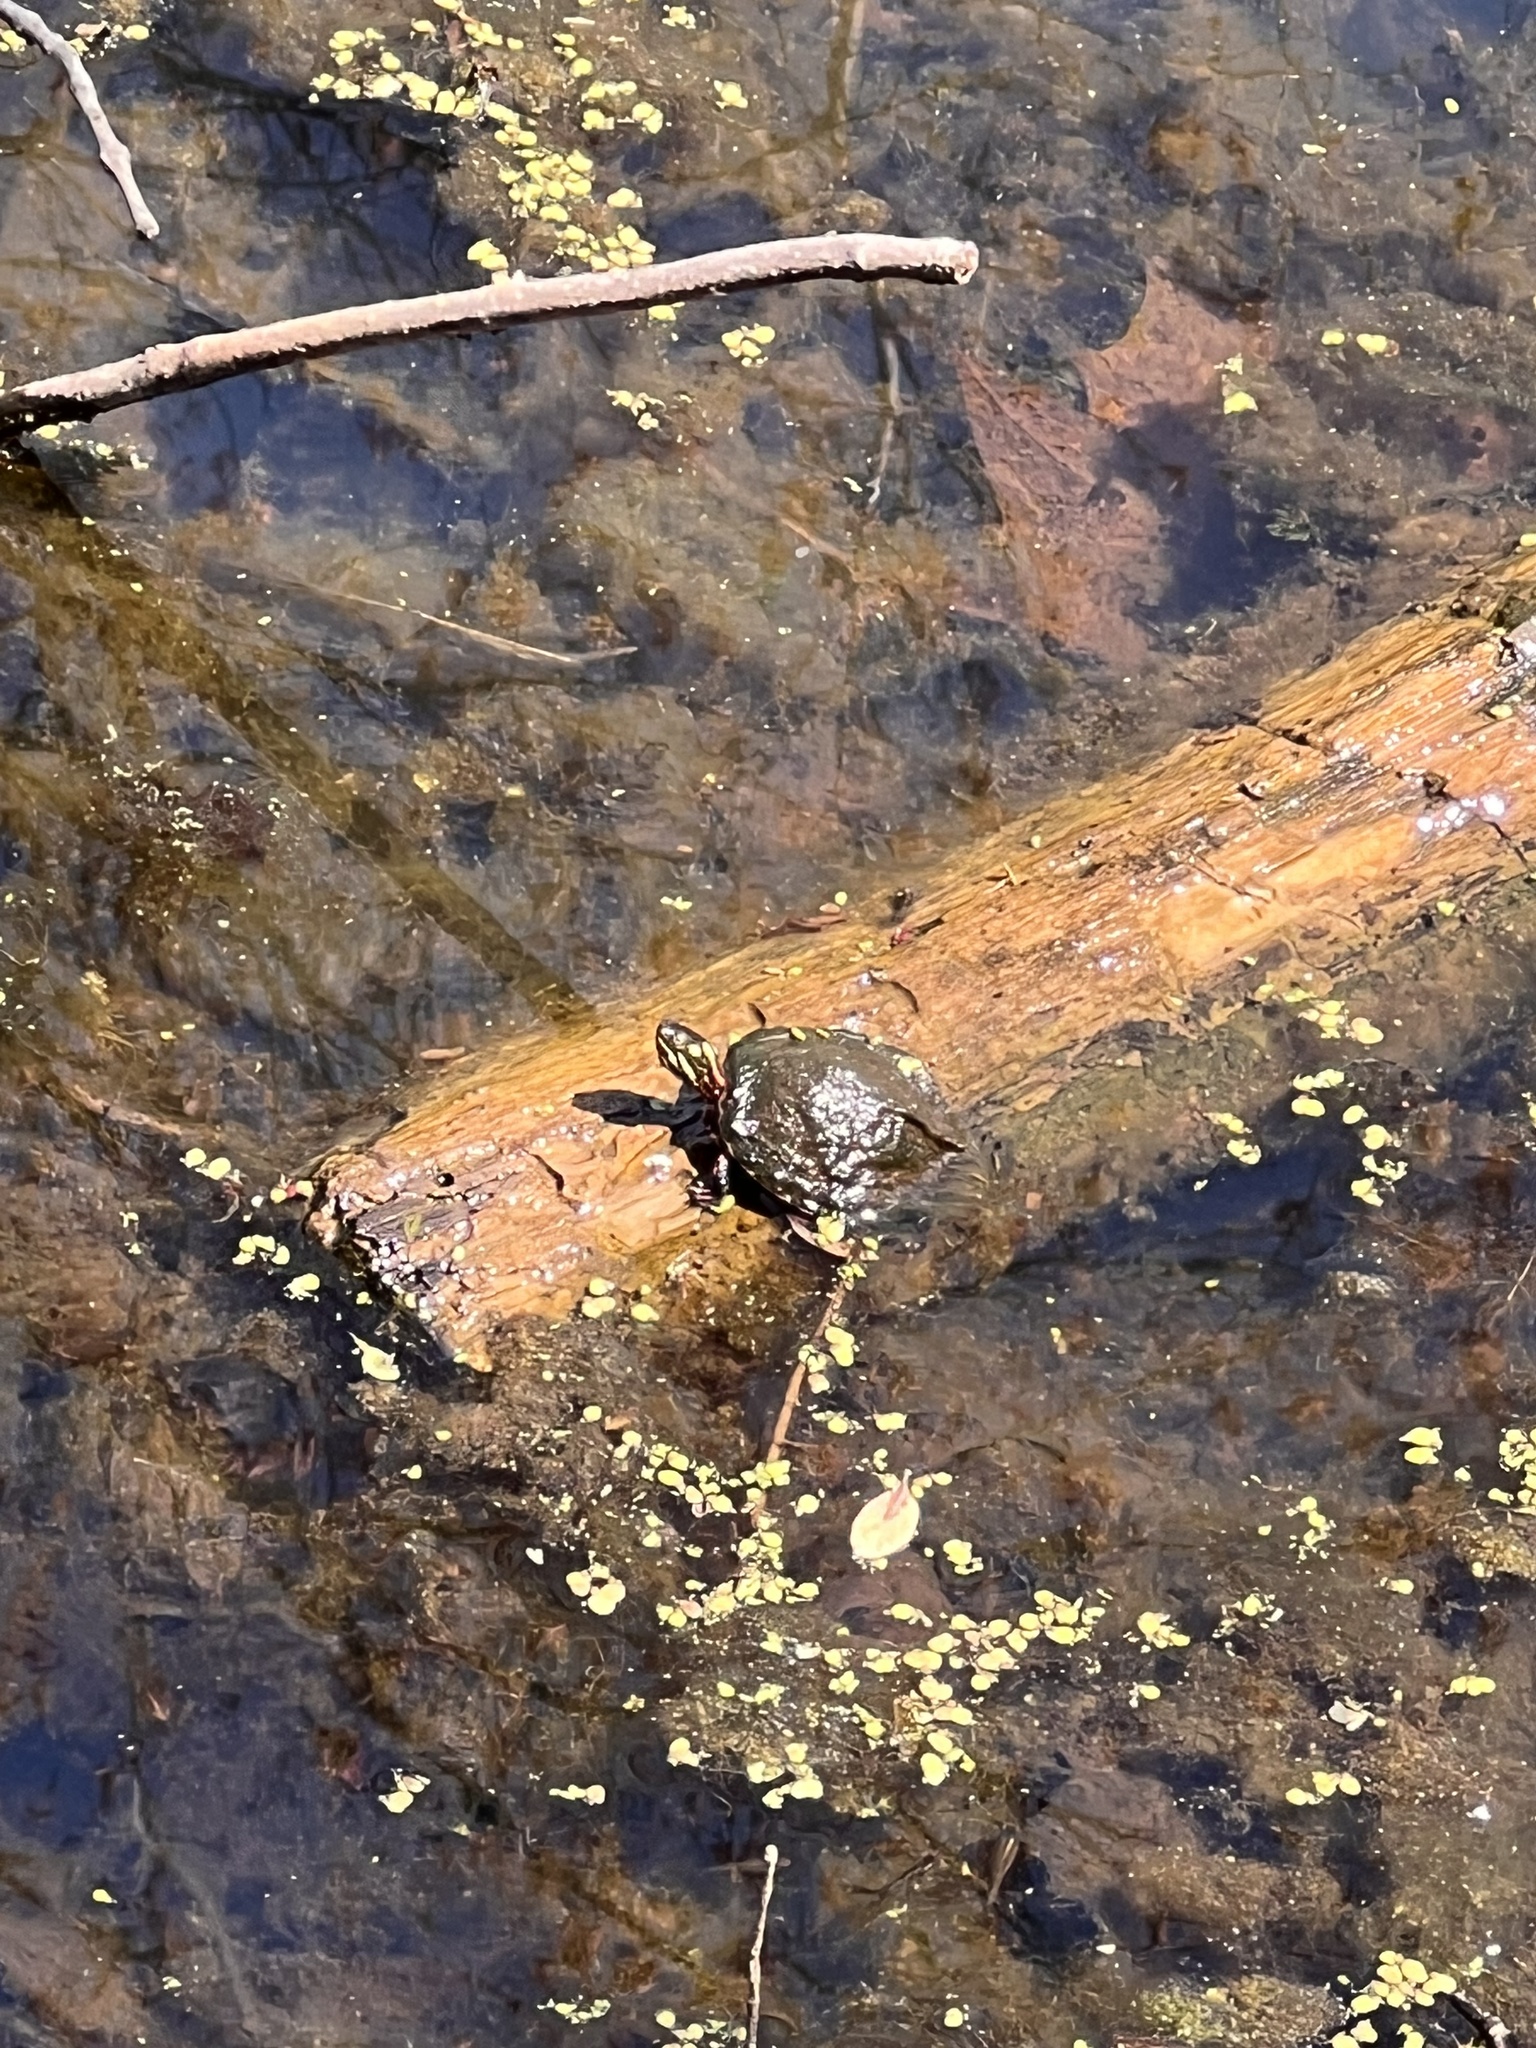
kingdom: Animalia
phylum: Chordata
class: Testudines
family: Emydidae
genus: Chrysemys
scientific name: Chrysemys picta
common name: Painted turtle
